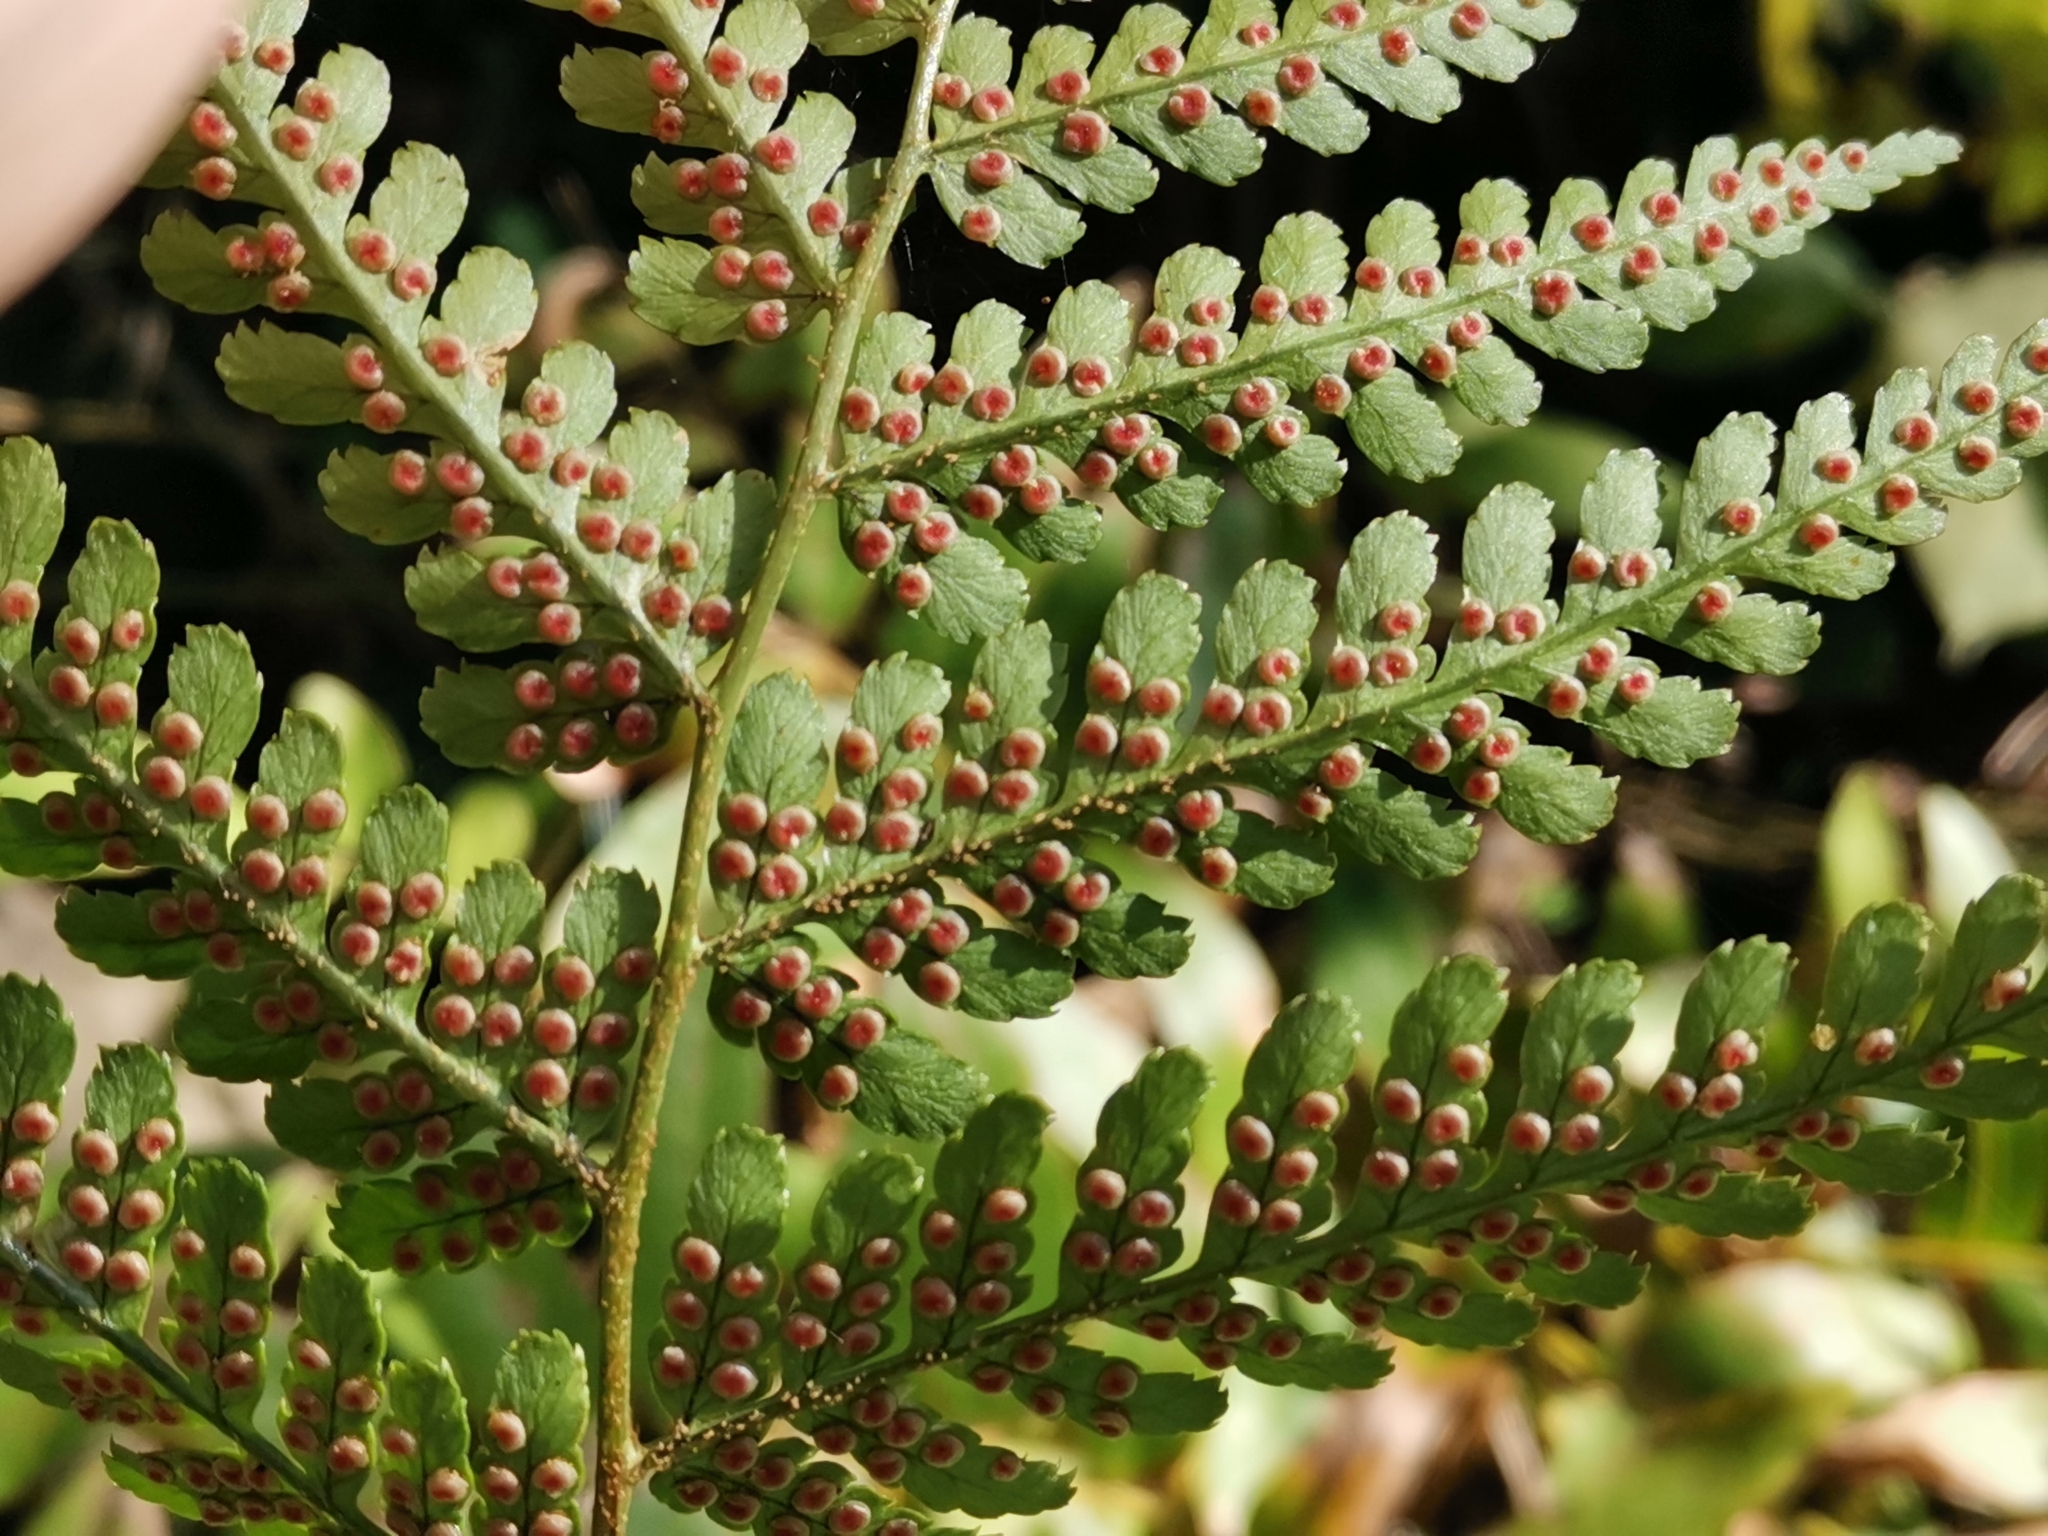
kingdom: Plantae
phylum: Tracheophyta
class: Polypodiopsida
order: Polypodiales
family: Dryopteridaceae
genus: Dryopteris
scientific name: Dryopteris erythrosora
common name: Autumn fern
